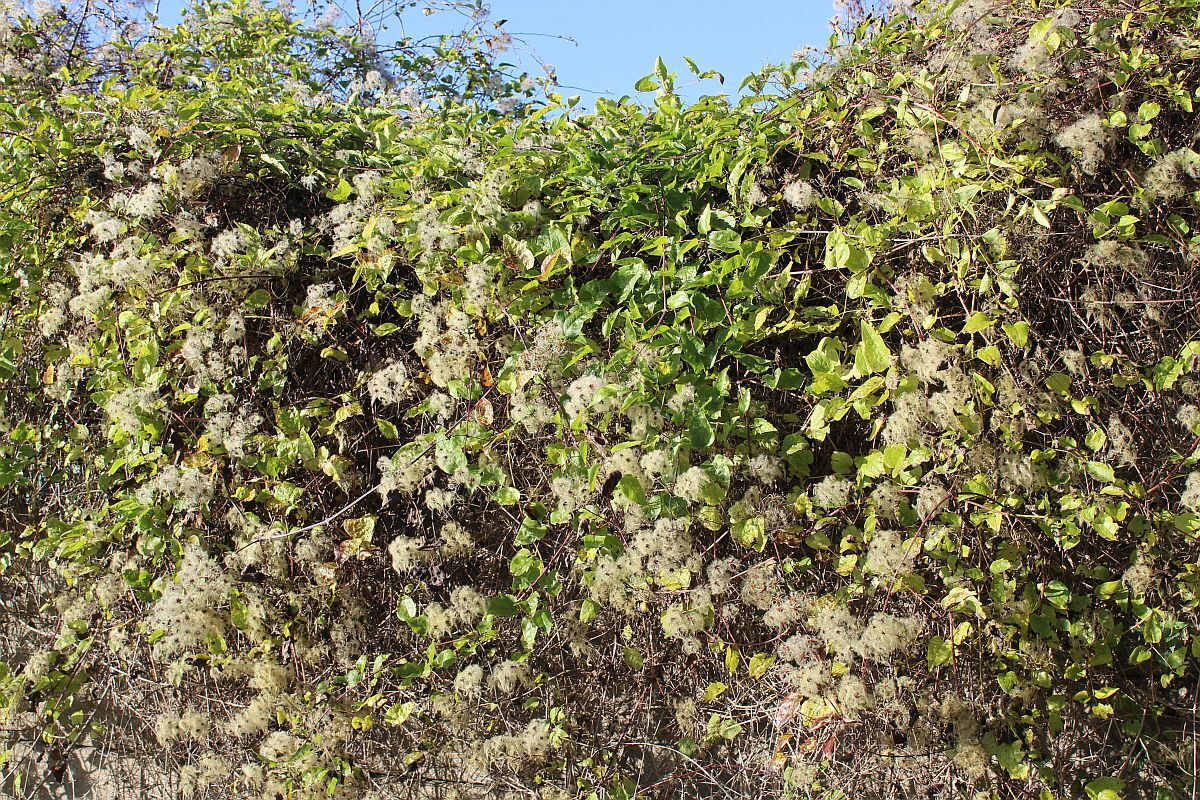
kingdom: Plantae
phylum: Tracheophyta
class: Magnoliopsida
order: Ranunculales
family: Ranunculaceae
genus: Clematis
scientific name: Clematis vitalba
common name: Evergreen clematis
